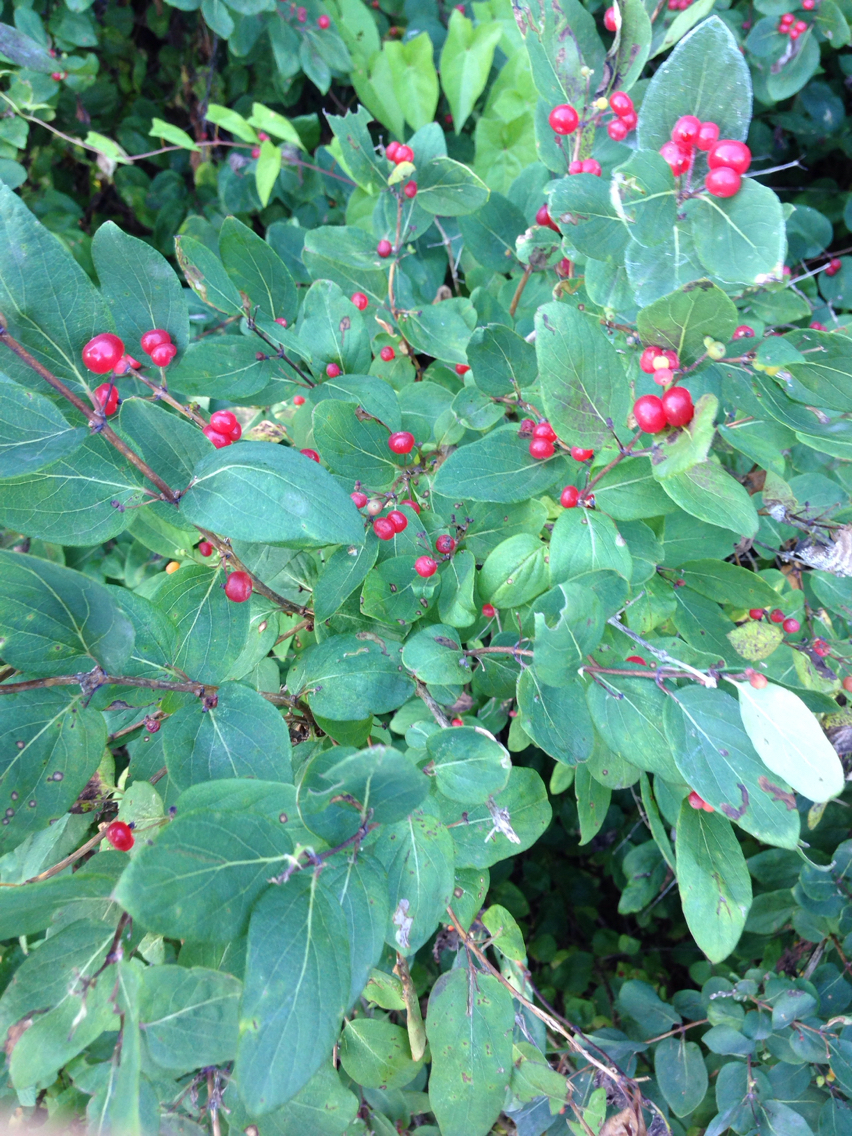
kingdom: Plantae
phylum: Tracheophyta
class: Magnoliopsida
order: Dipsacales
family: Caprifoliaceae
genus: Lonicera
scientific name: Lonicera tatarica
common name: Tatarian honeysuckle
